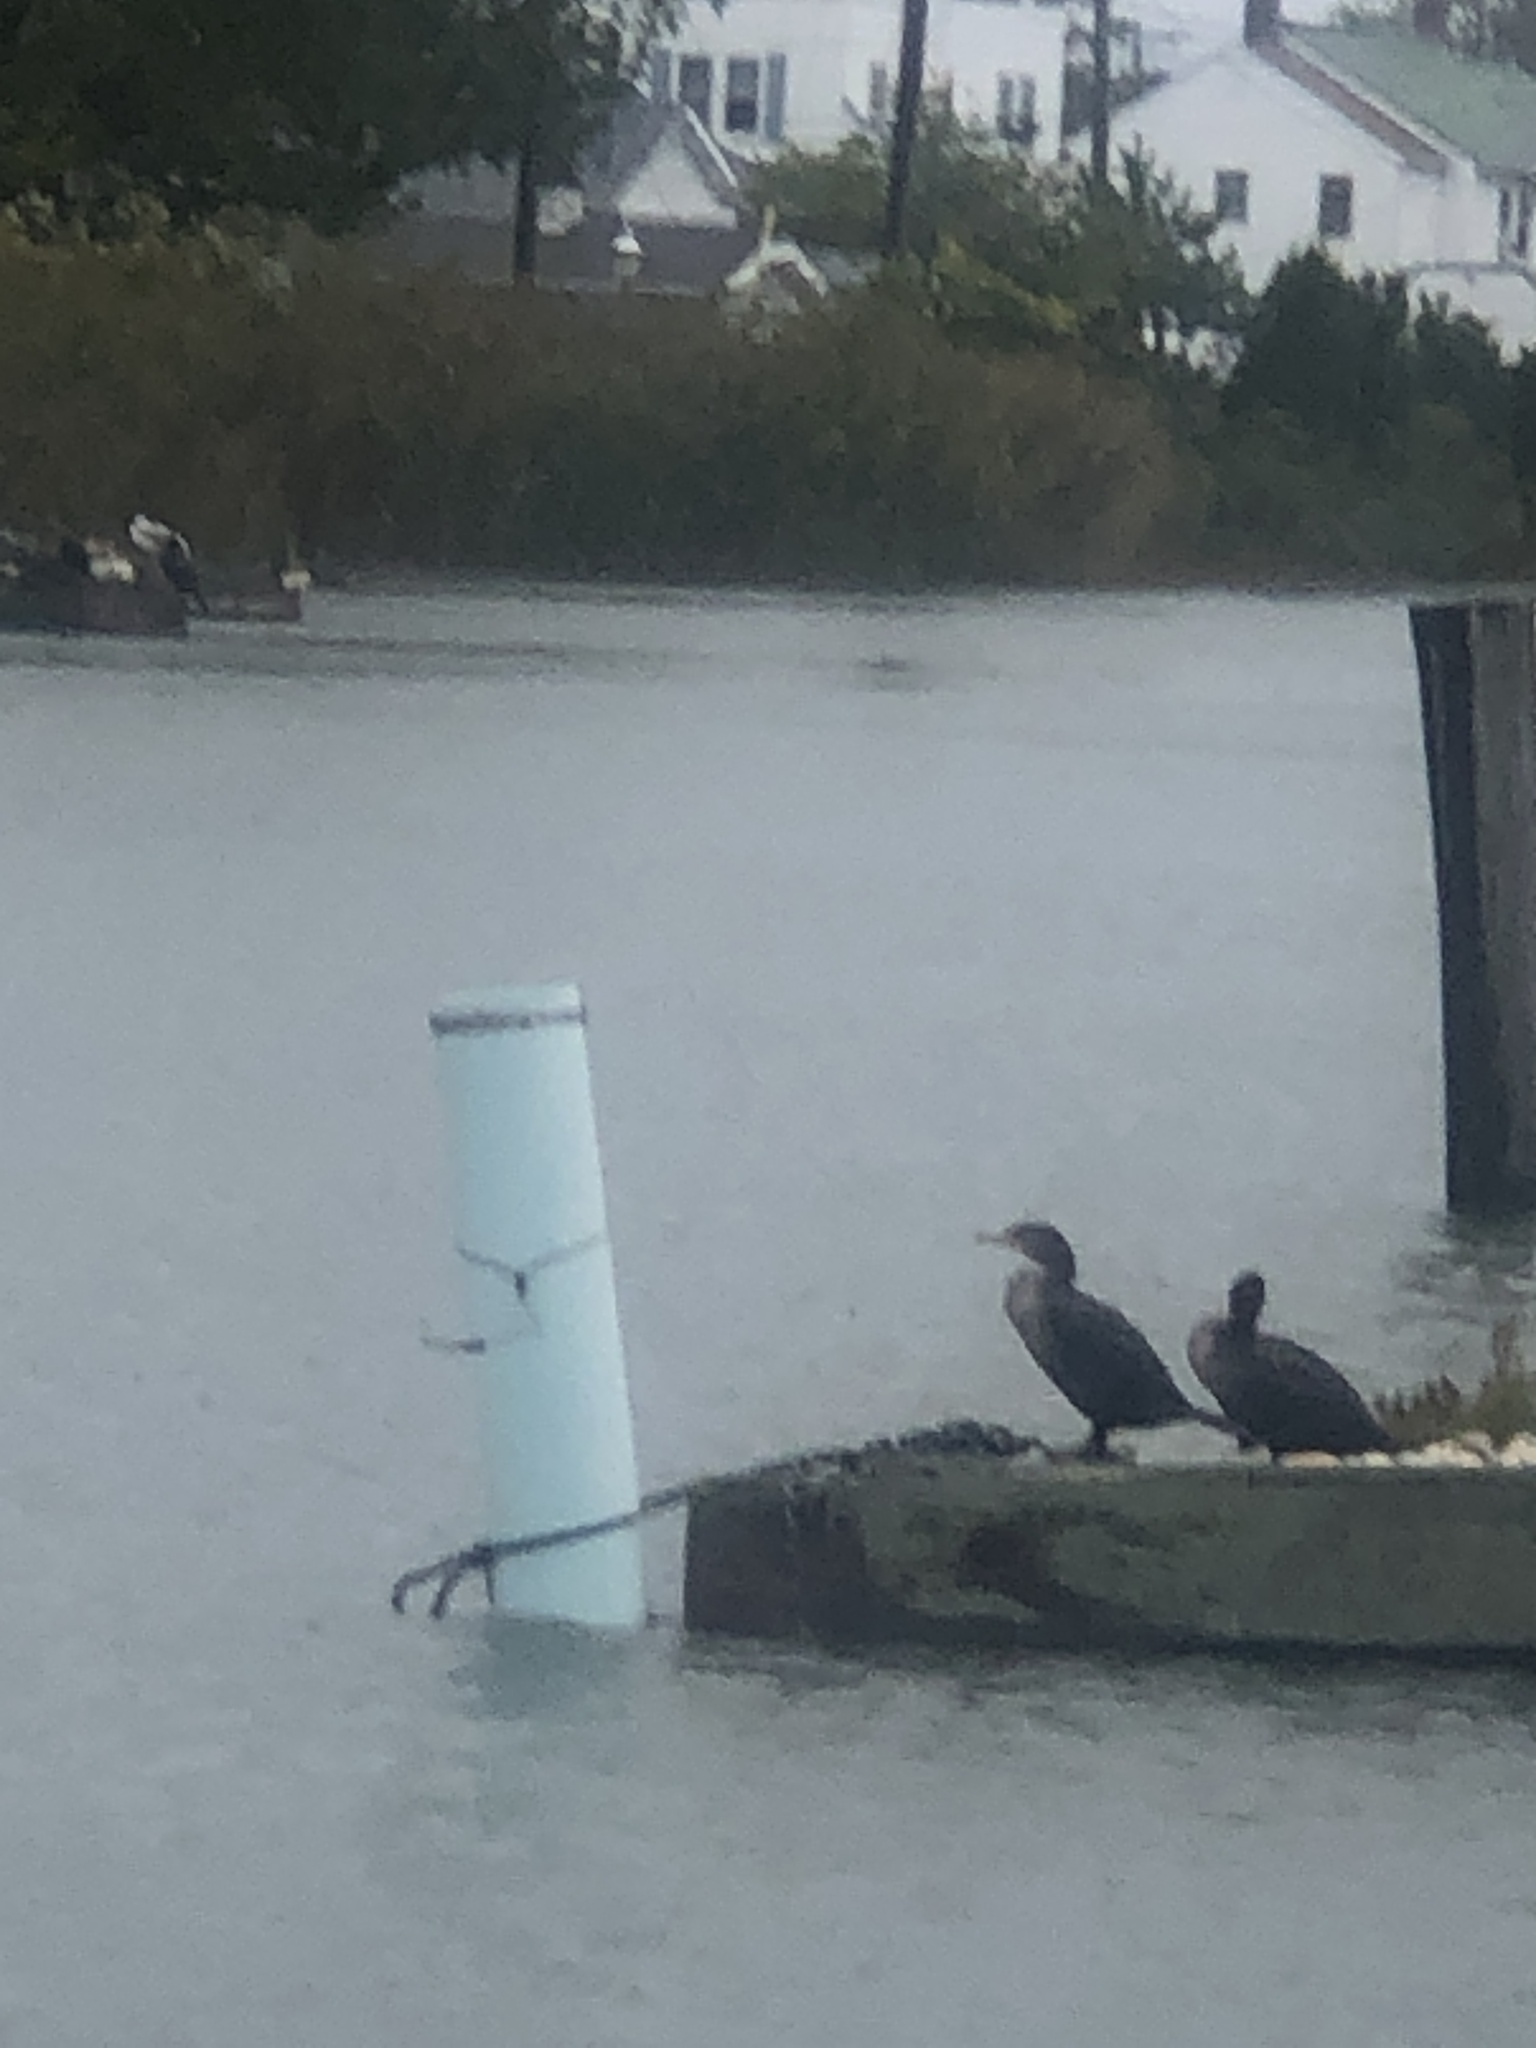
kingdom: Animalia
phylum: Chordata
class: Aves
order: Suliformes
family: Phalacrocoracidae
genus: Phalacrocorax
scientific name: Phalacrocorax auritus
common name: Double-crested cormorant
